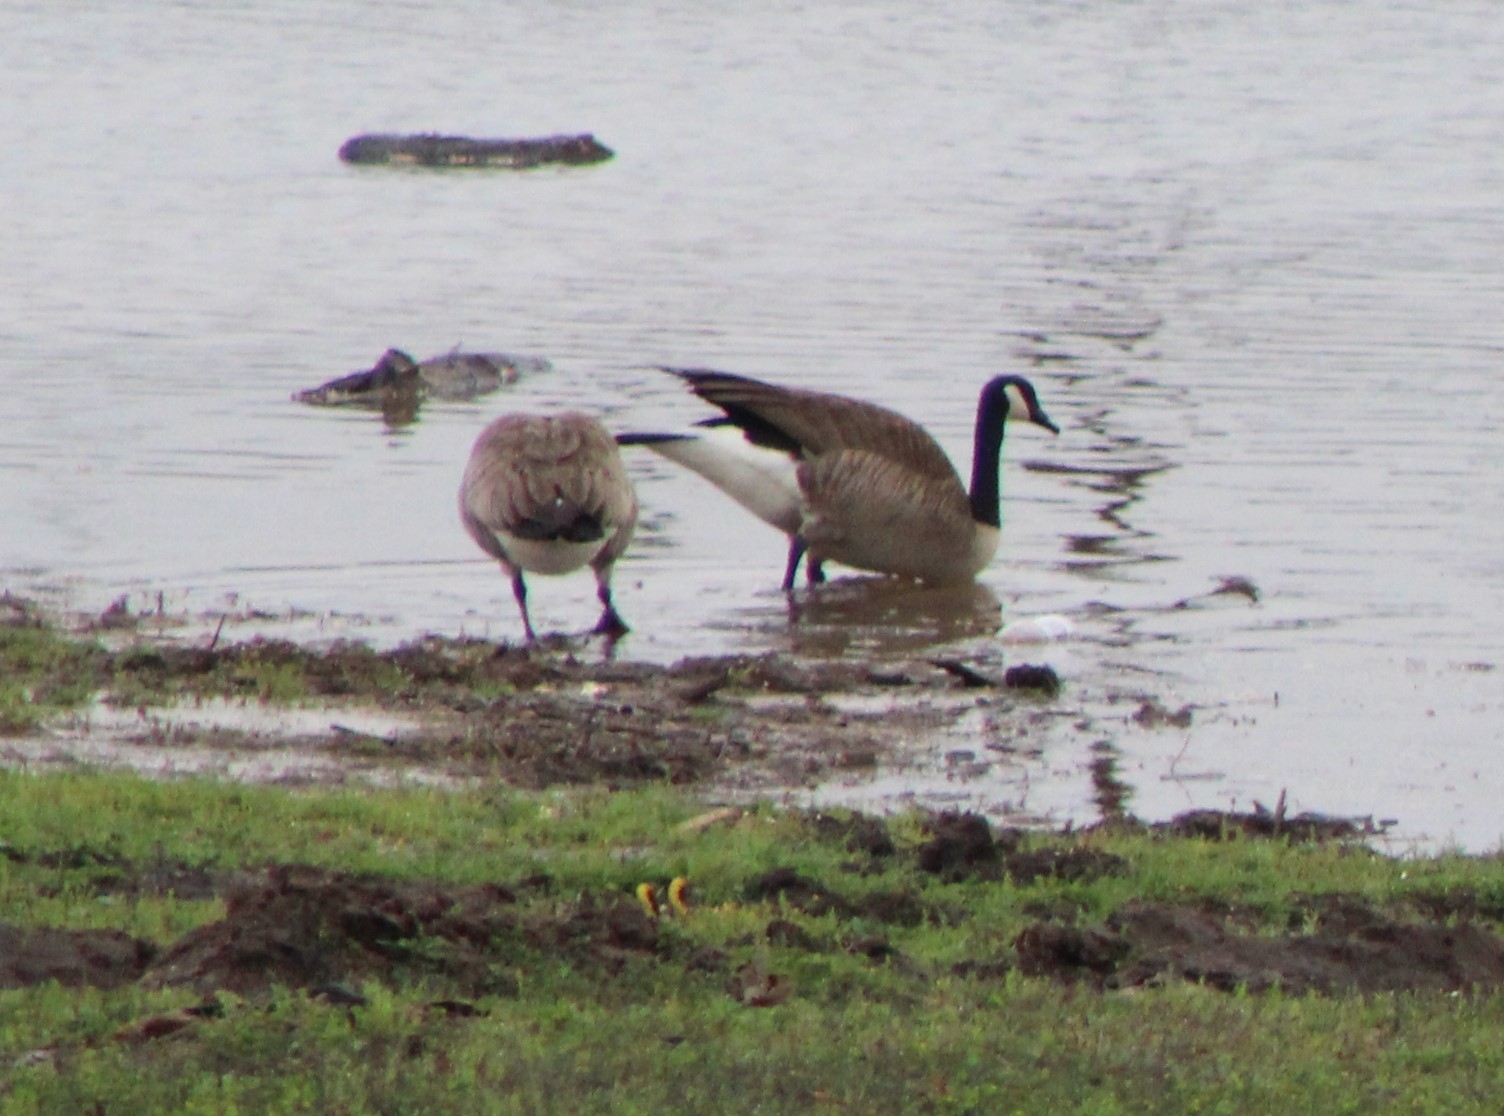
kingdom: Animalia
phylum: Chordata
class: Aves
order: Anseriformes
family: Anatidae
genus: Branta
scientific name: Branta canadensis
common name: Canada goose
